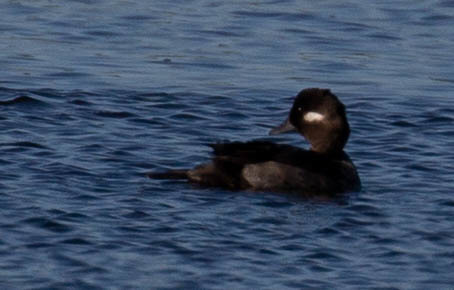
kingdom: Animalia
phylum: Chordata
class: Aves
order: Anseriformes
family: Anatidae
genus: Bucephala
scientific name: Bucephala albeola
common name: Bufflehead
